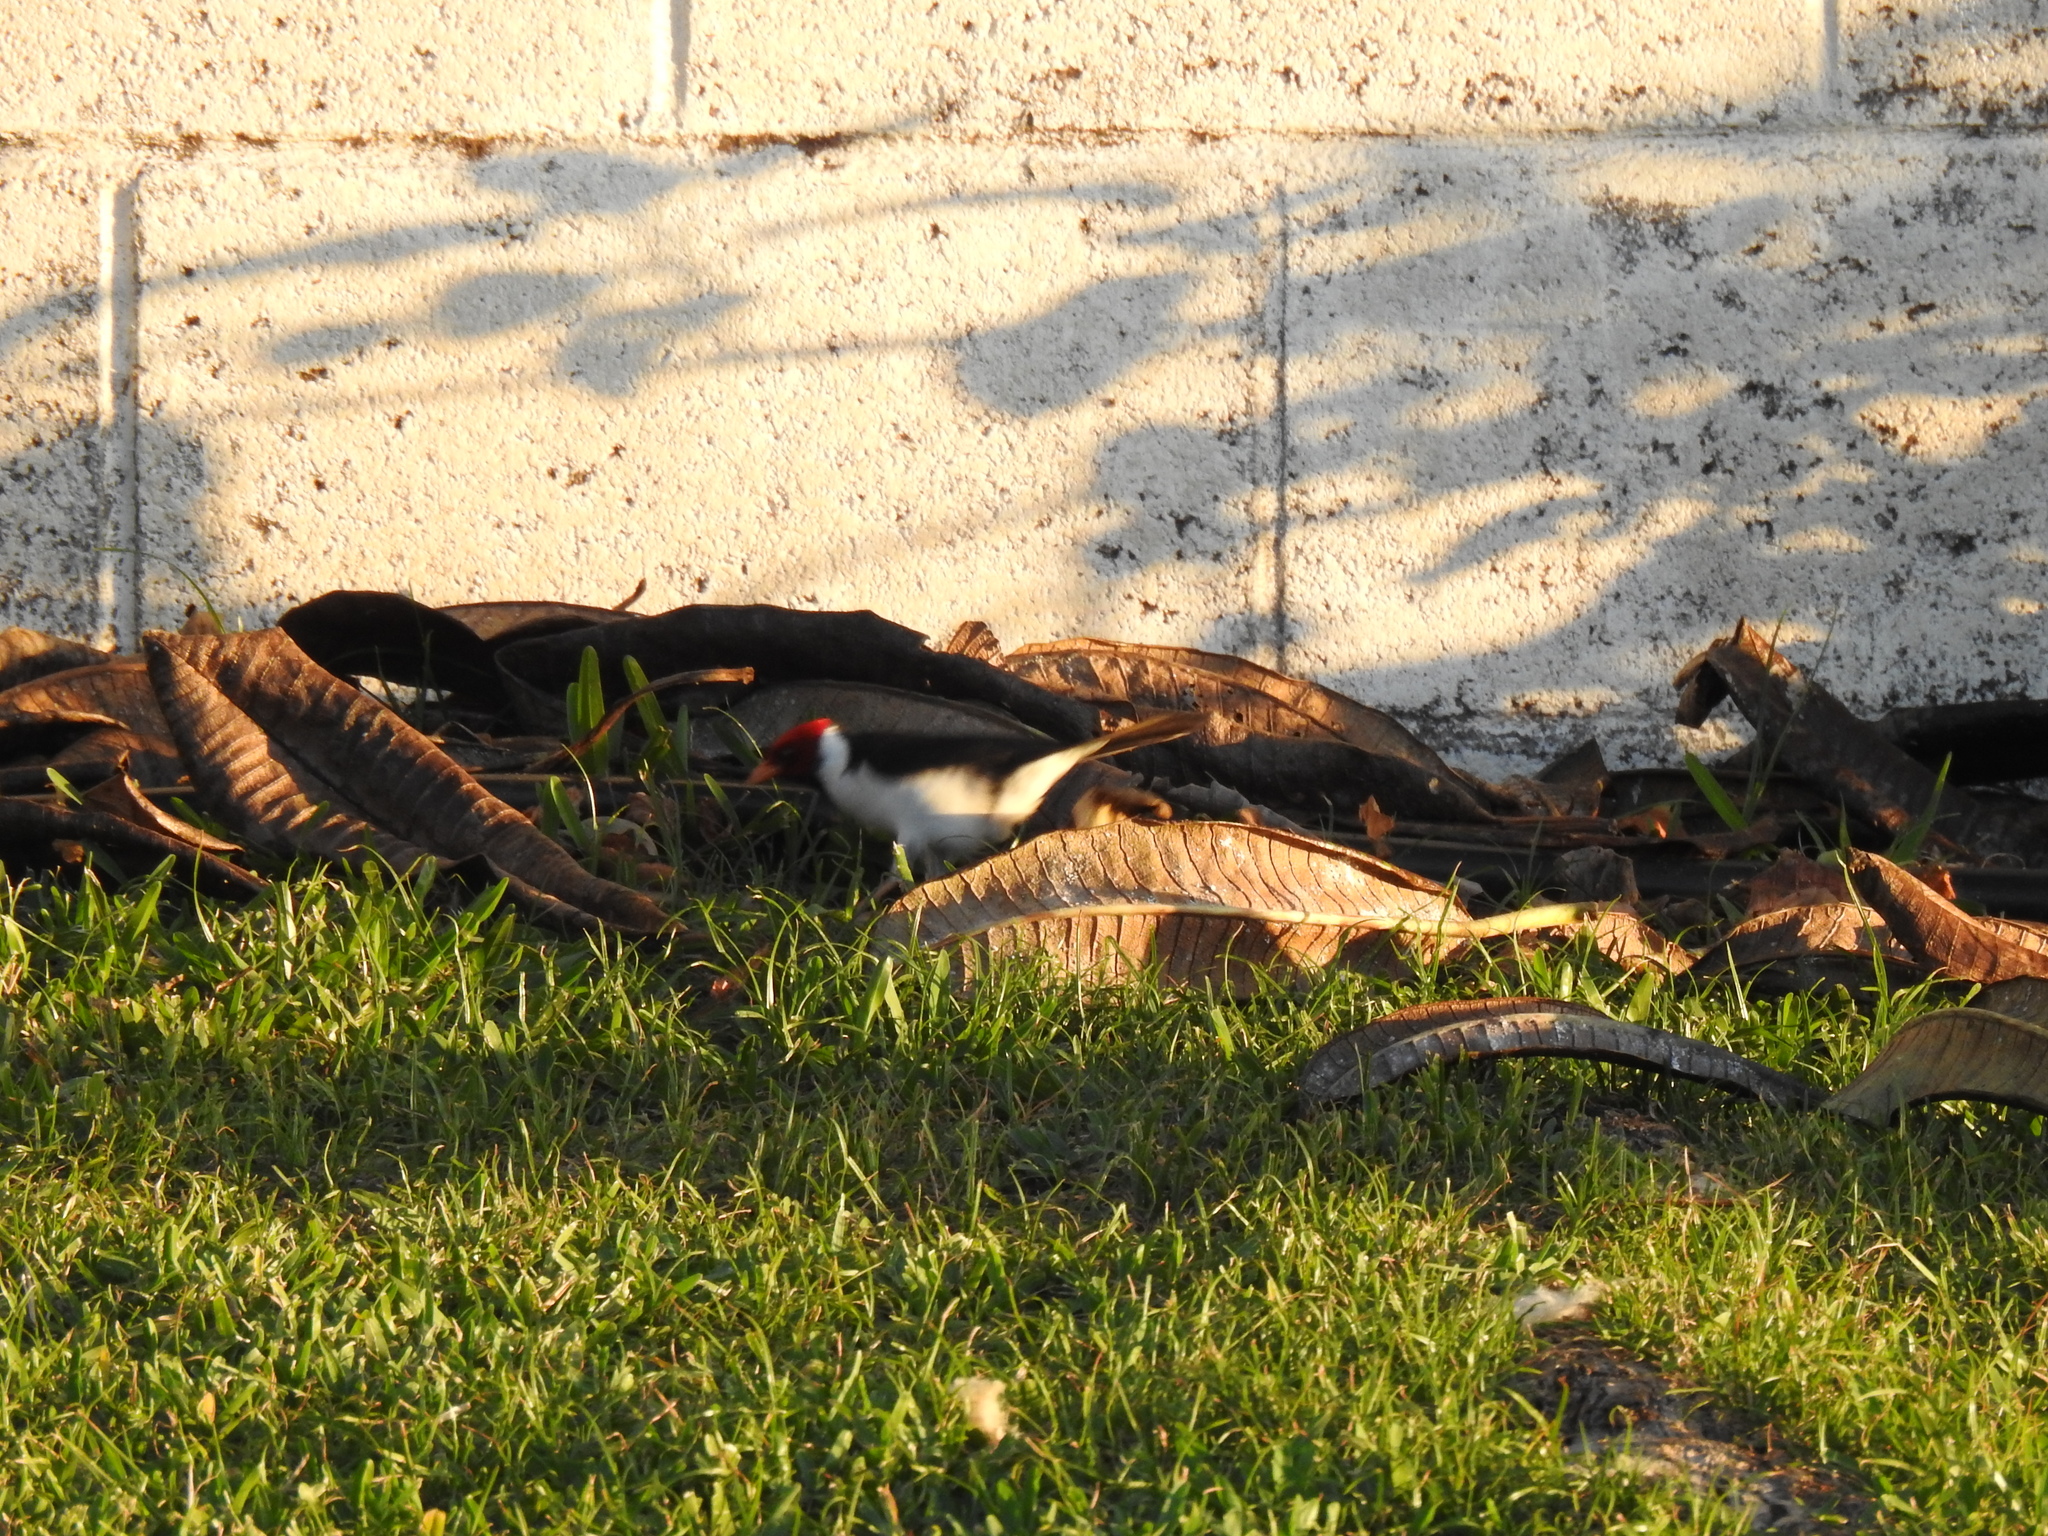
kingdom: Animalia
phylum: Chordata
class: Aves
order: Passeriformes
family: Thraupidae
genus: Paroaria
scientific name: Paroaria capitata
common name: Yellow-billed cardinal
